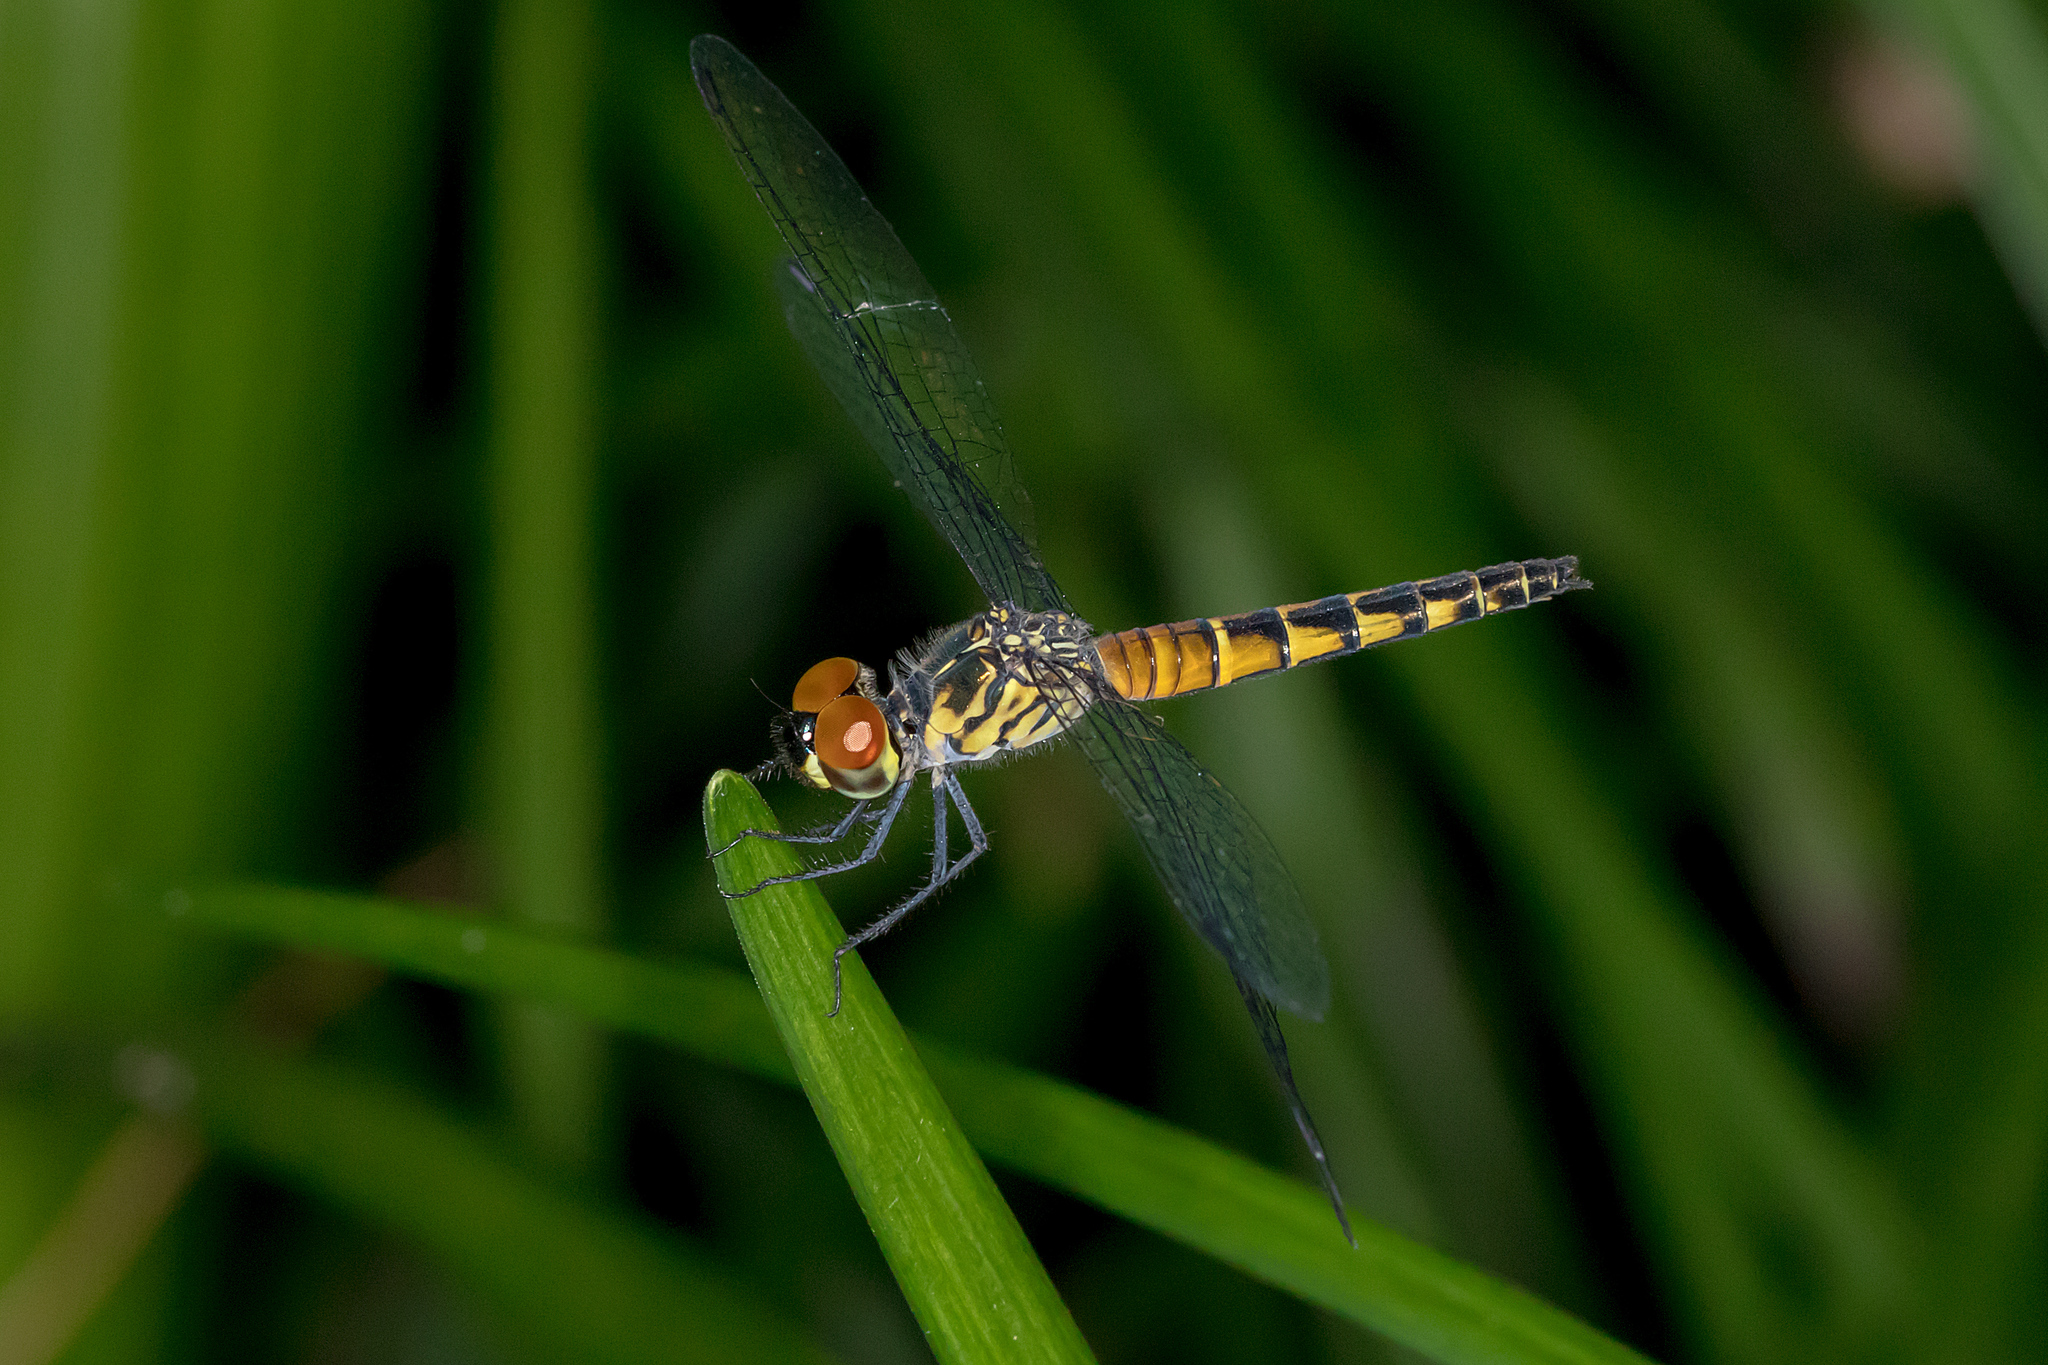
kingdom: Animalia
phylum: Arthropoda
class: Insecta
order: Odonata
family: Libellulidae
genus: Brachydiplax
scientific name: Brachydiplax denticauda
